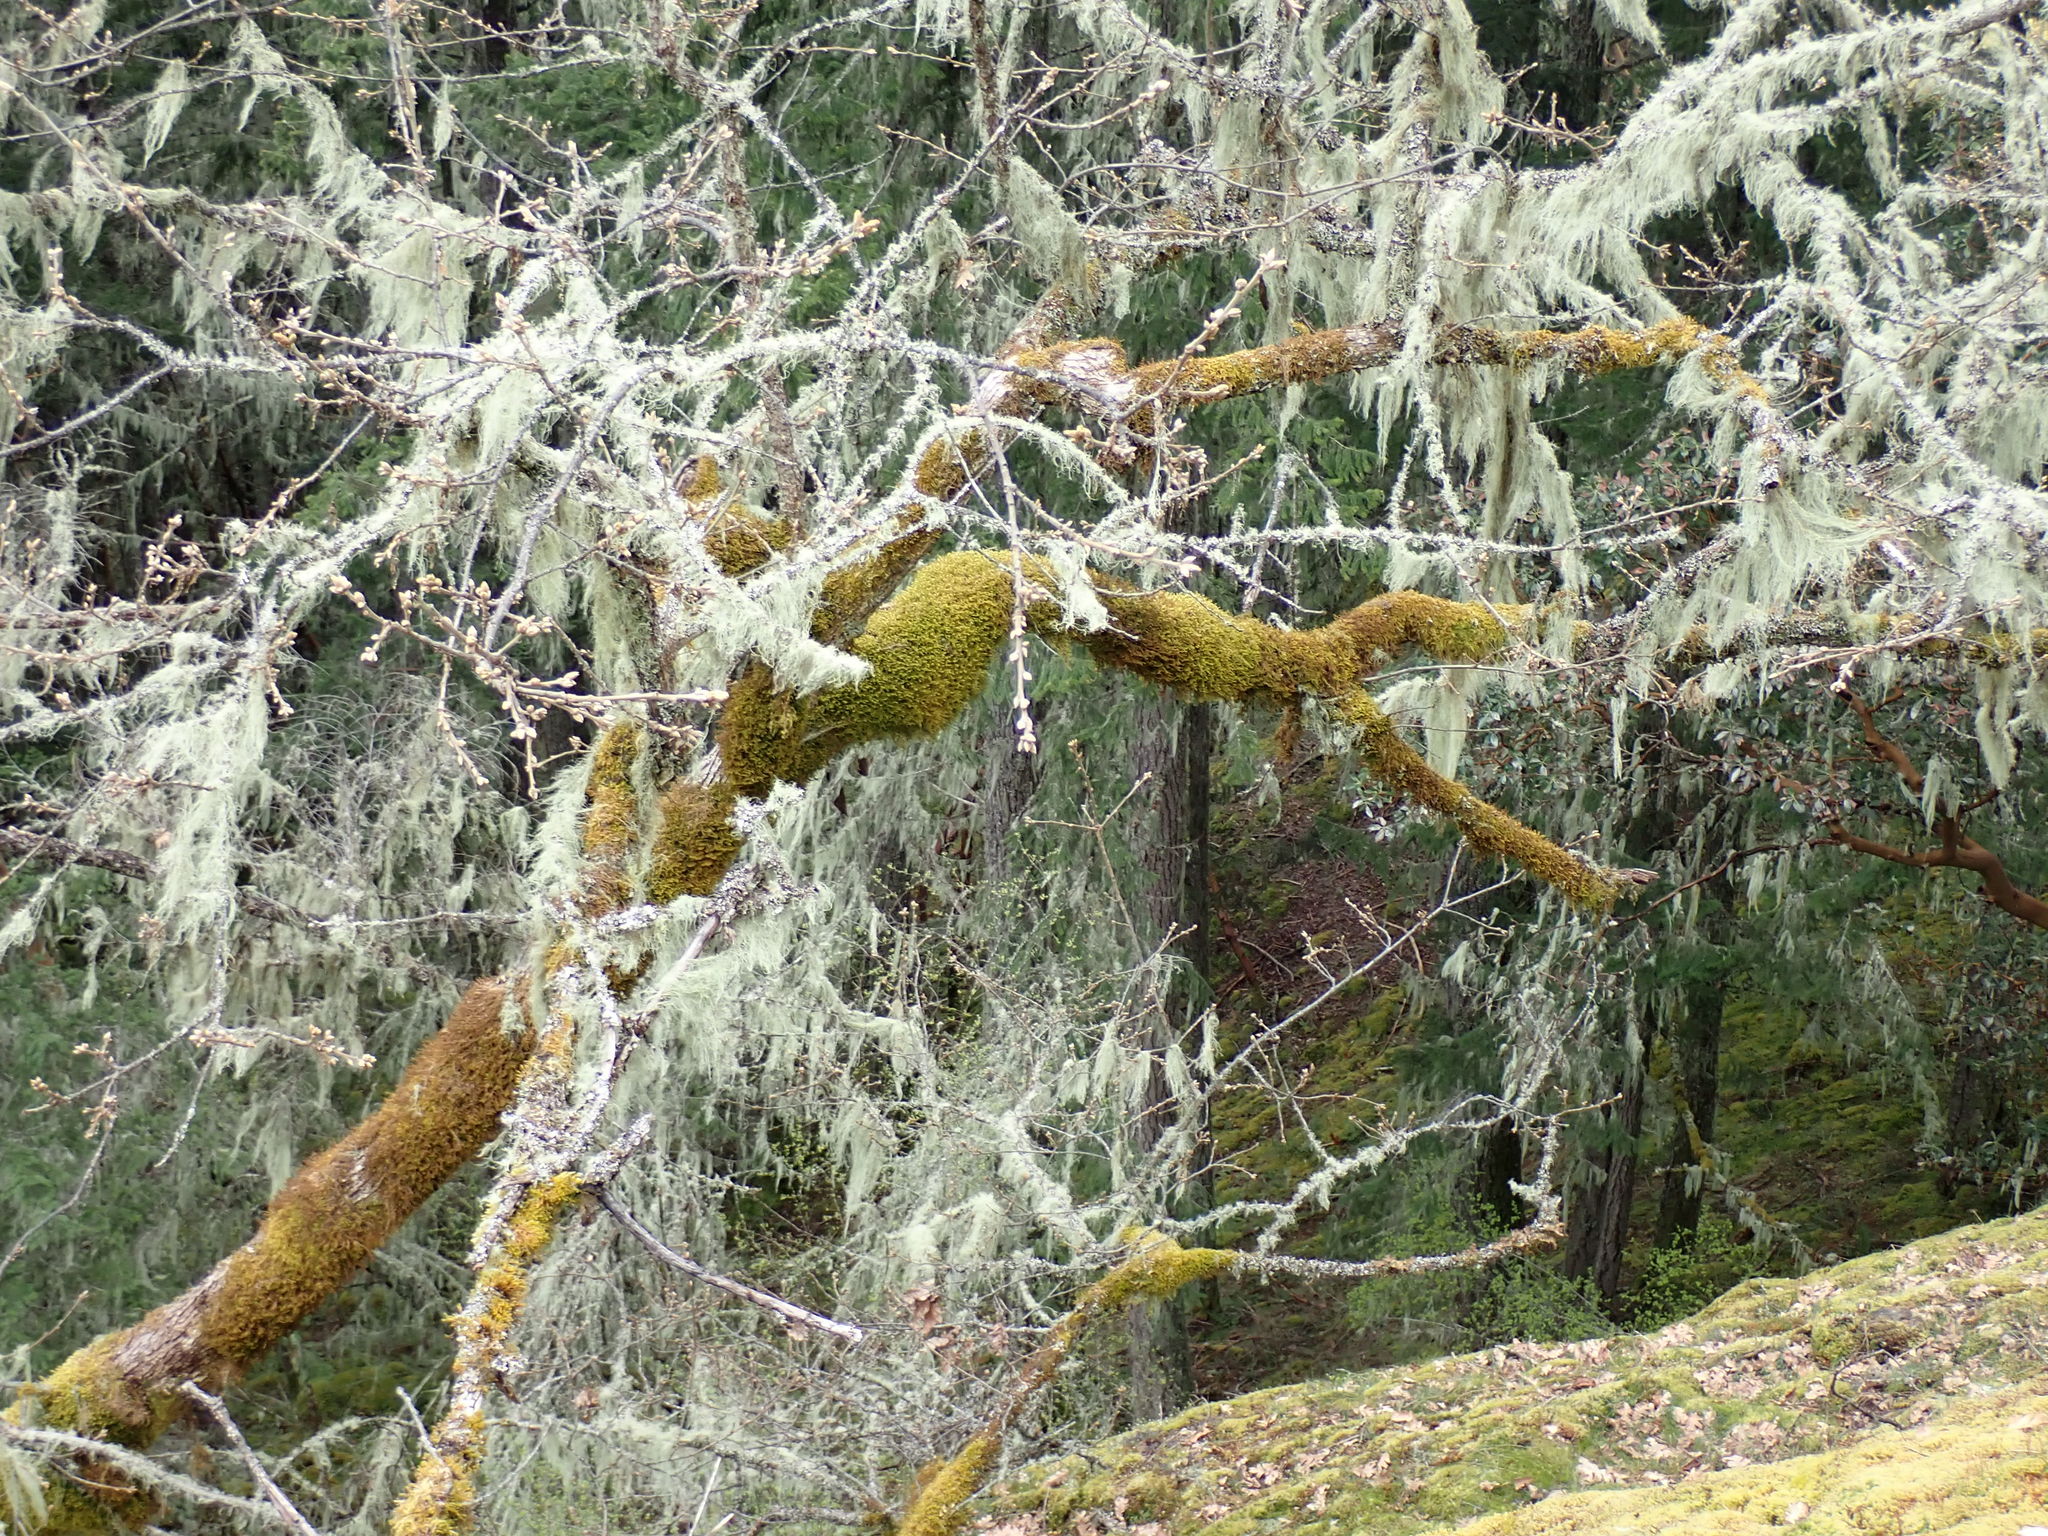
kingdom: Plantae
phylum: Tracheophyta
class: Magnoliopsida
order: Fagales
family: Fagaceae
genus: Quercus
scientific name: Quercus garryana
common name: Garry oak
